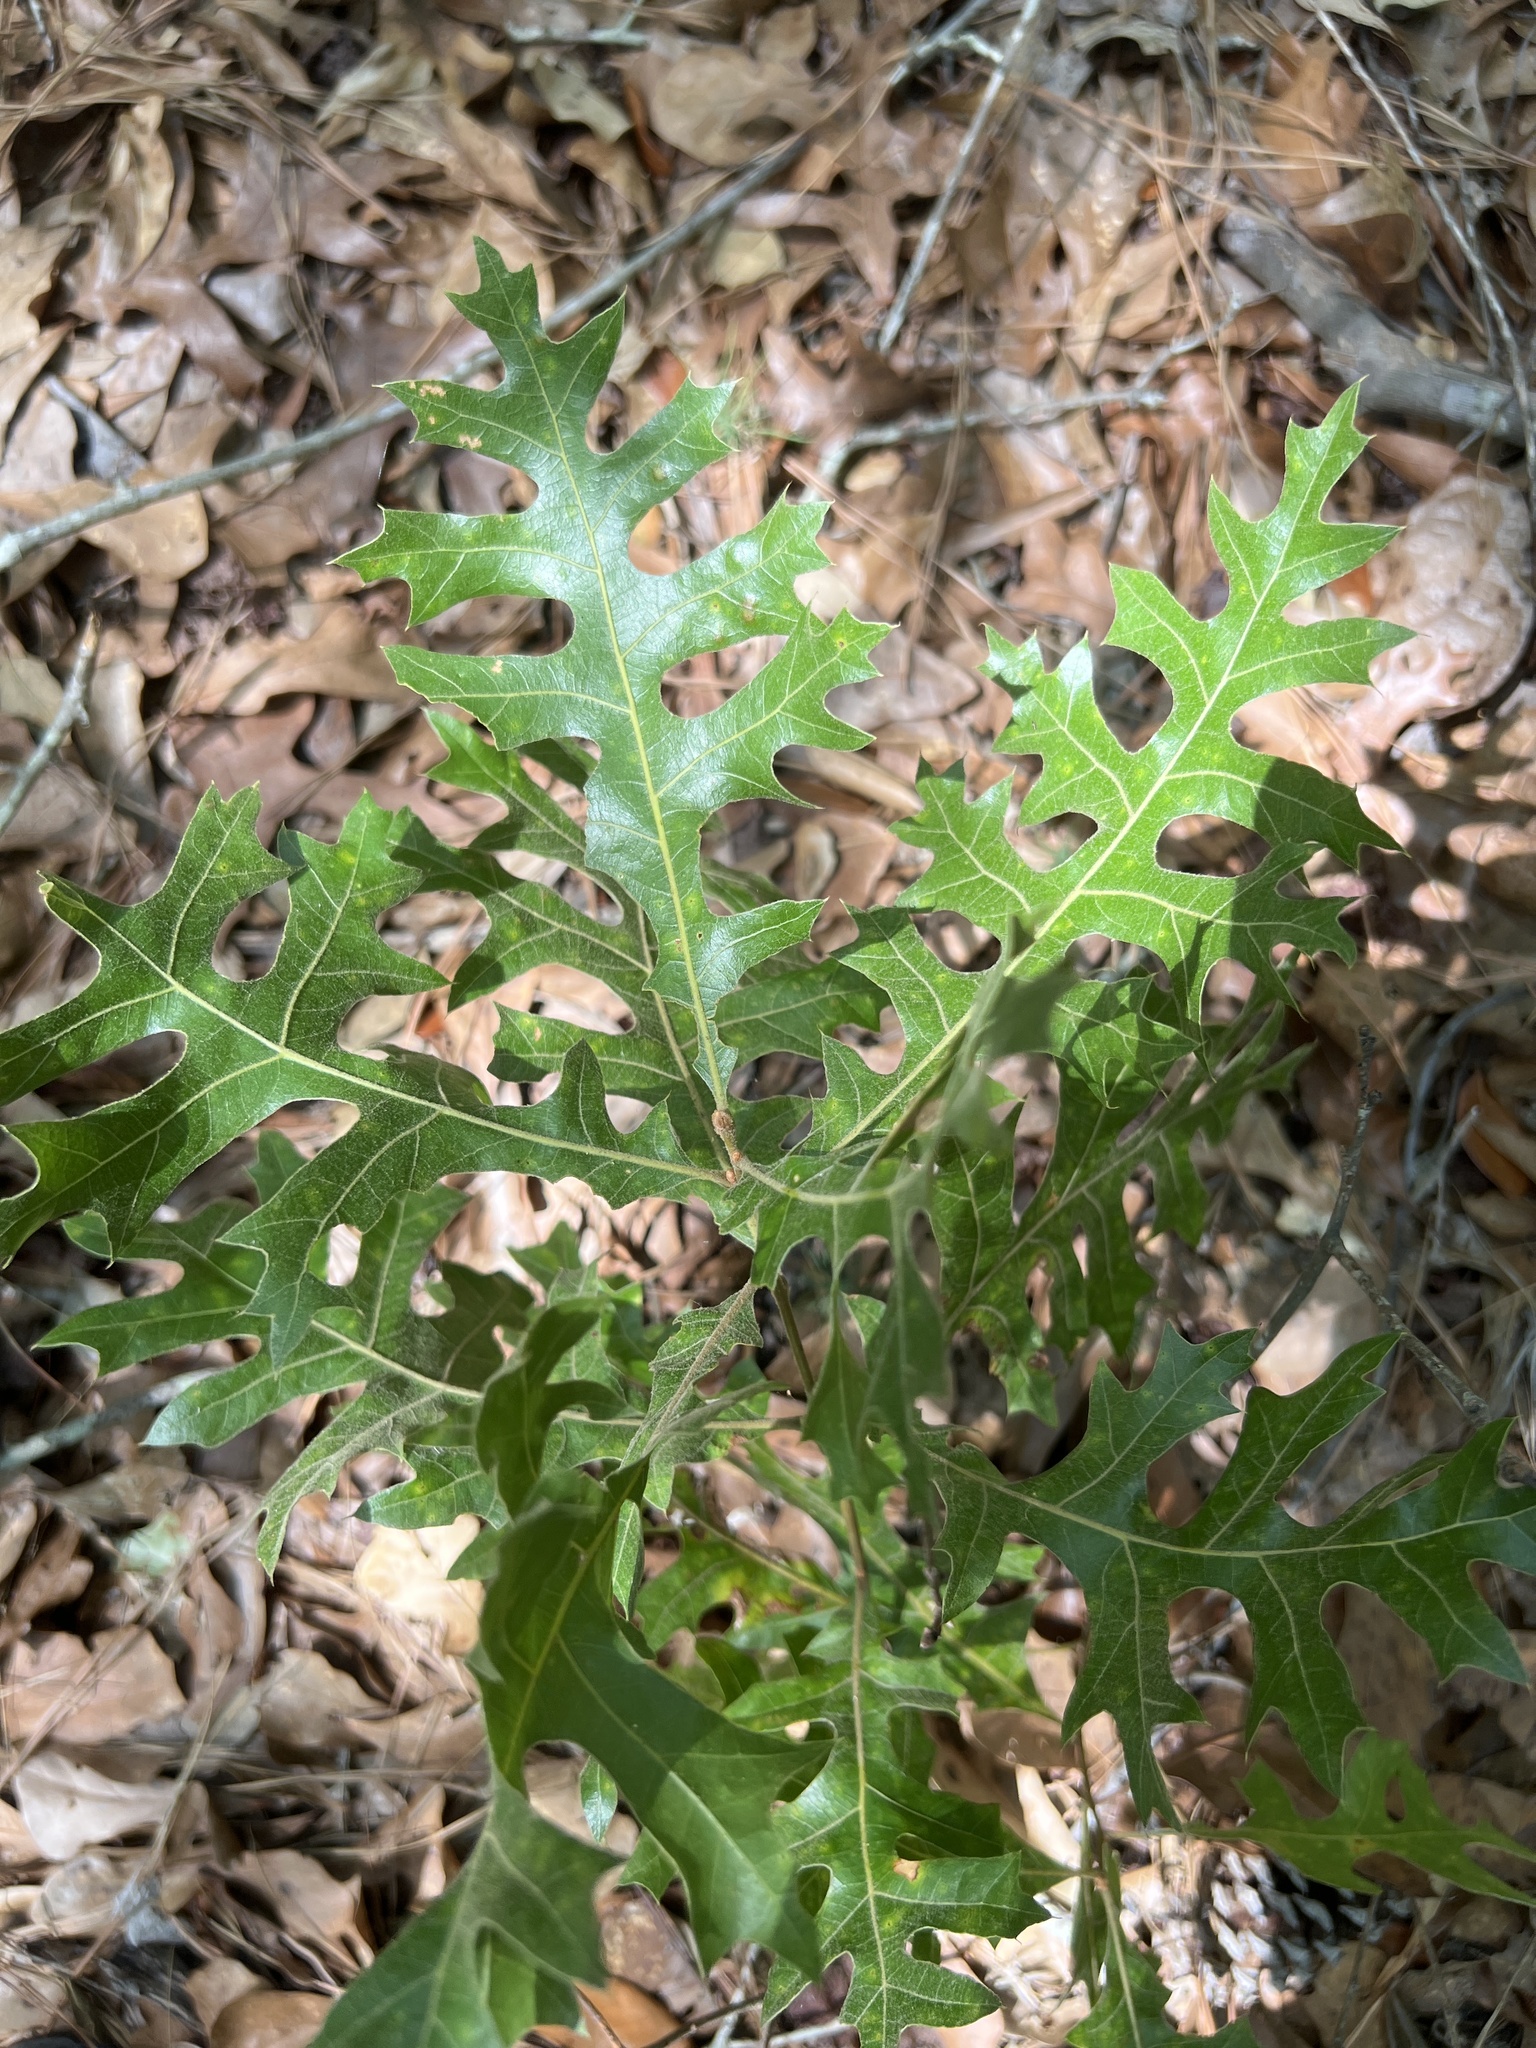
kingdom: Plantae
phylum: Tracheophyta
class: Magnoliopsida
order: Fagales
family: Fagaceae
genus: Quercus
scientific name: Quercus laevis
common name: Turkey oak
